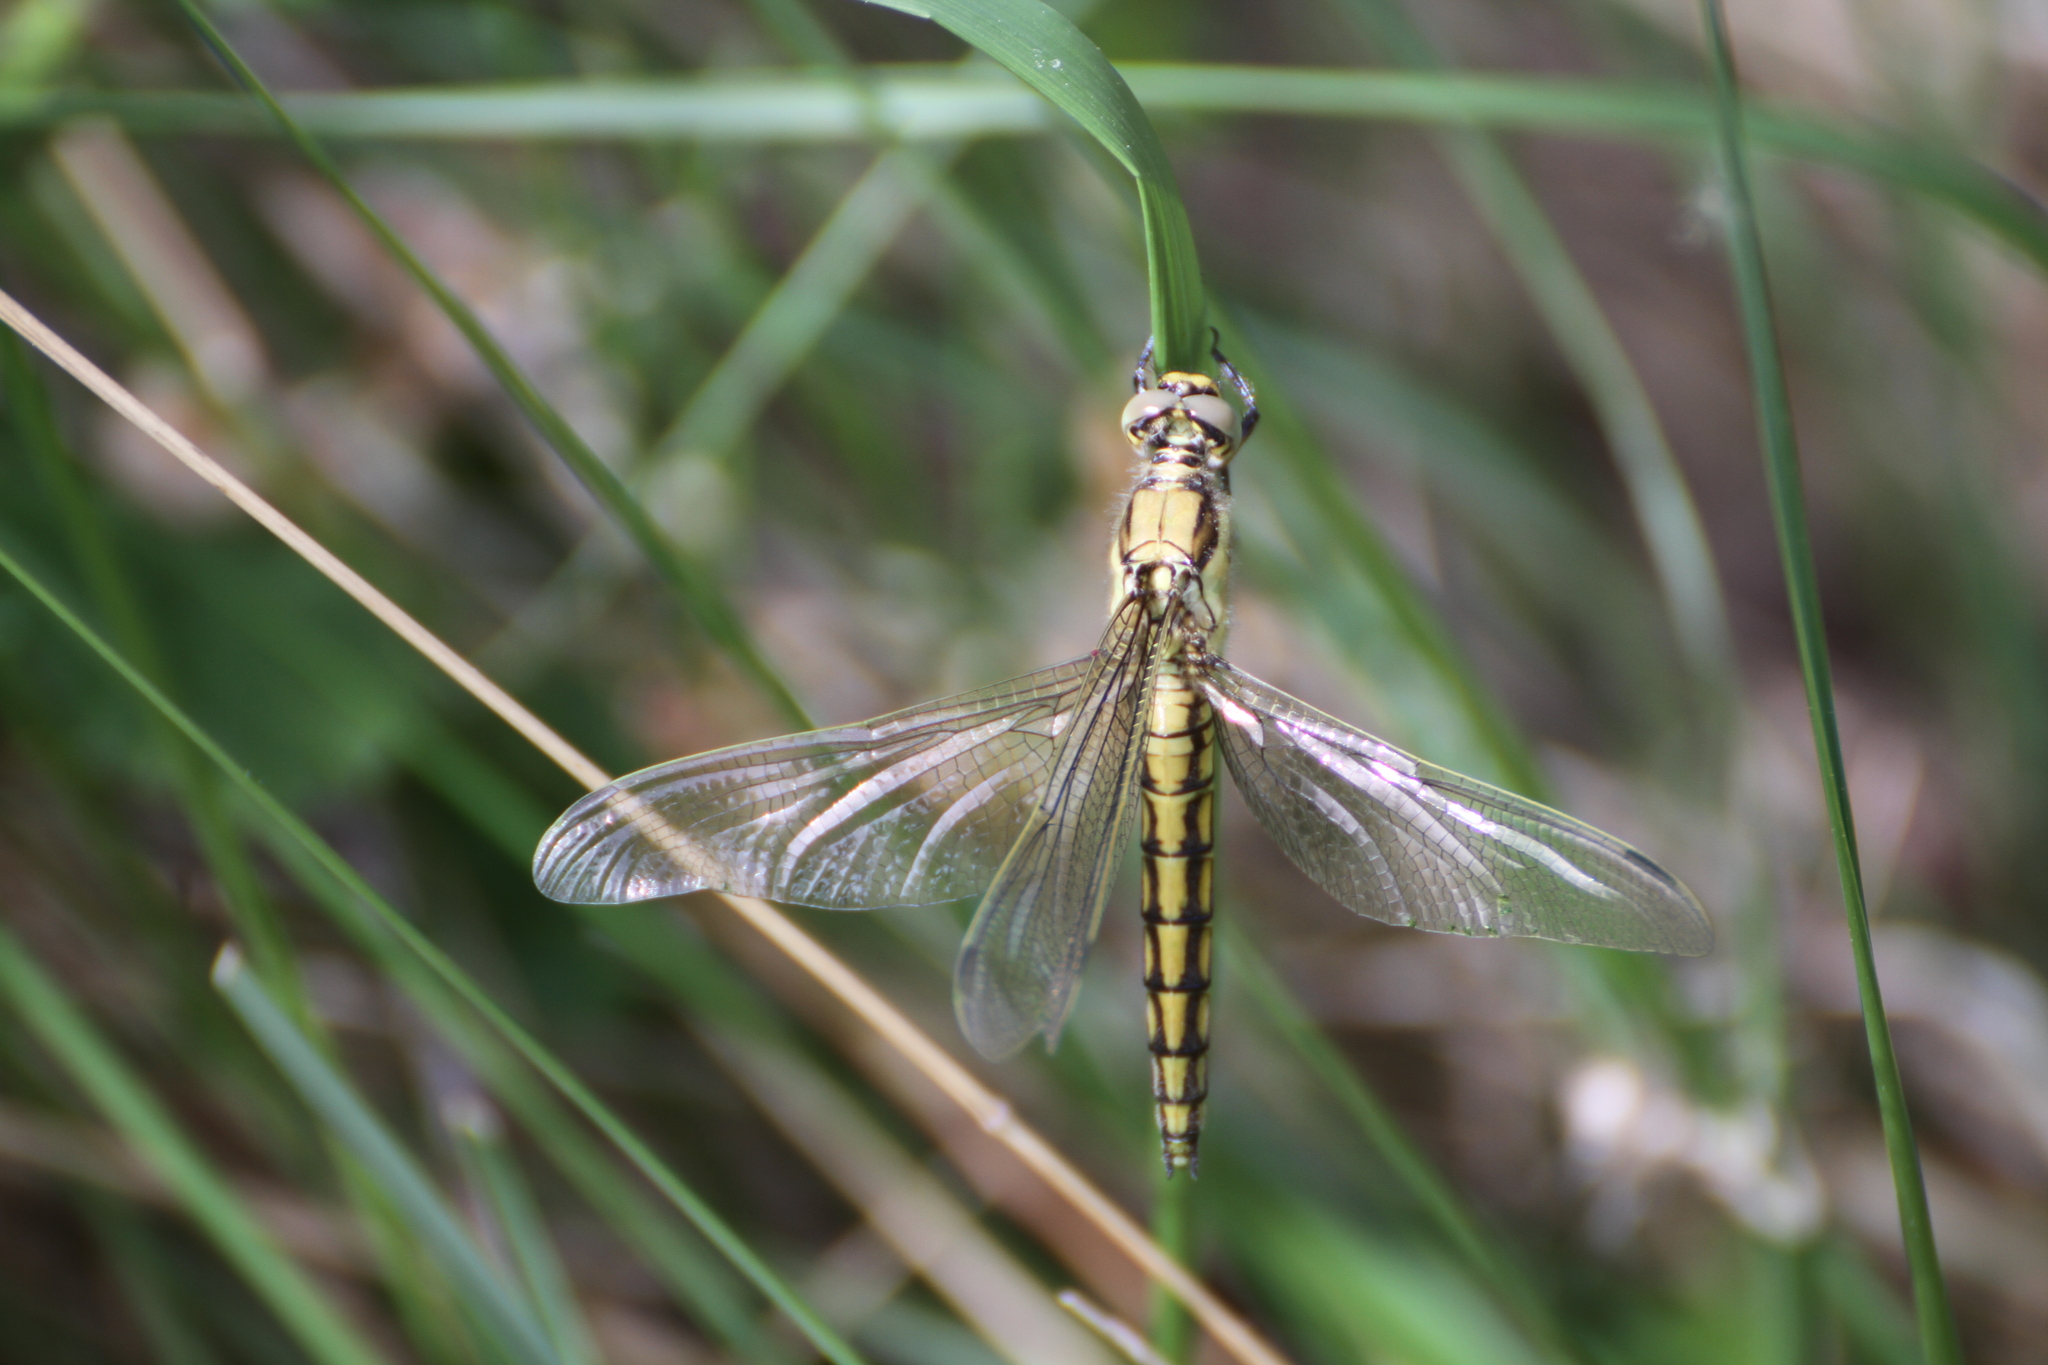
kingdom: Animalia
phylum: Arthropoda
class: Insecta
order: Odonata
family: Libellulidae
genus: Orthetrum
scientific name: Orthetrum cancellatum
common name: Black-tailed skimmer
